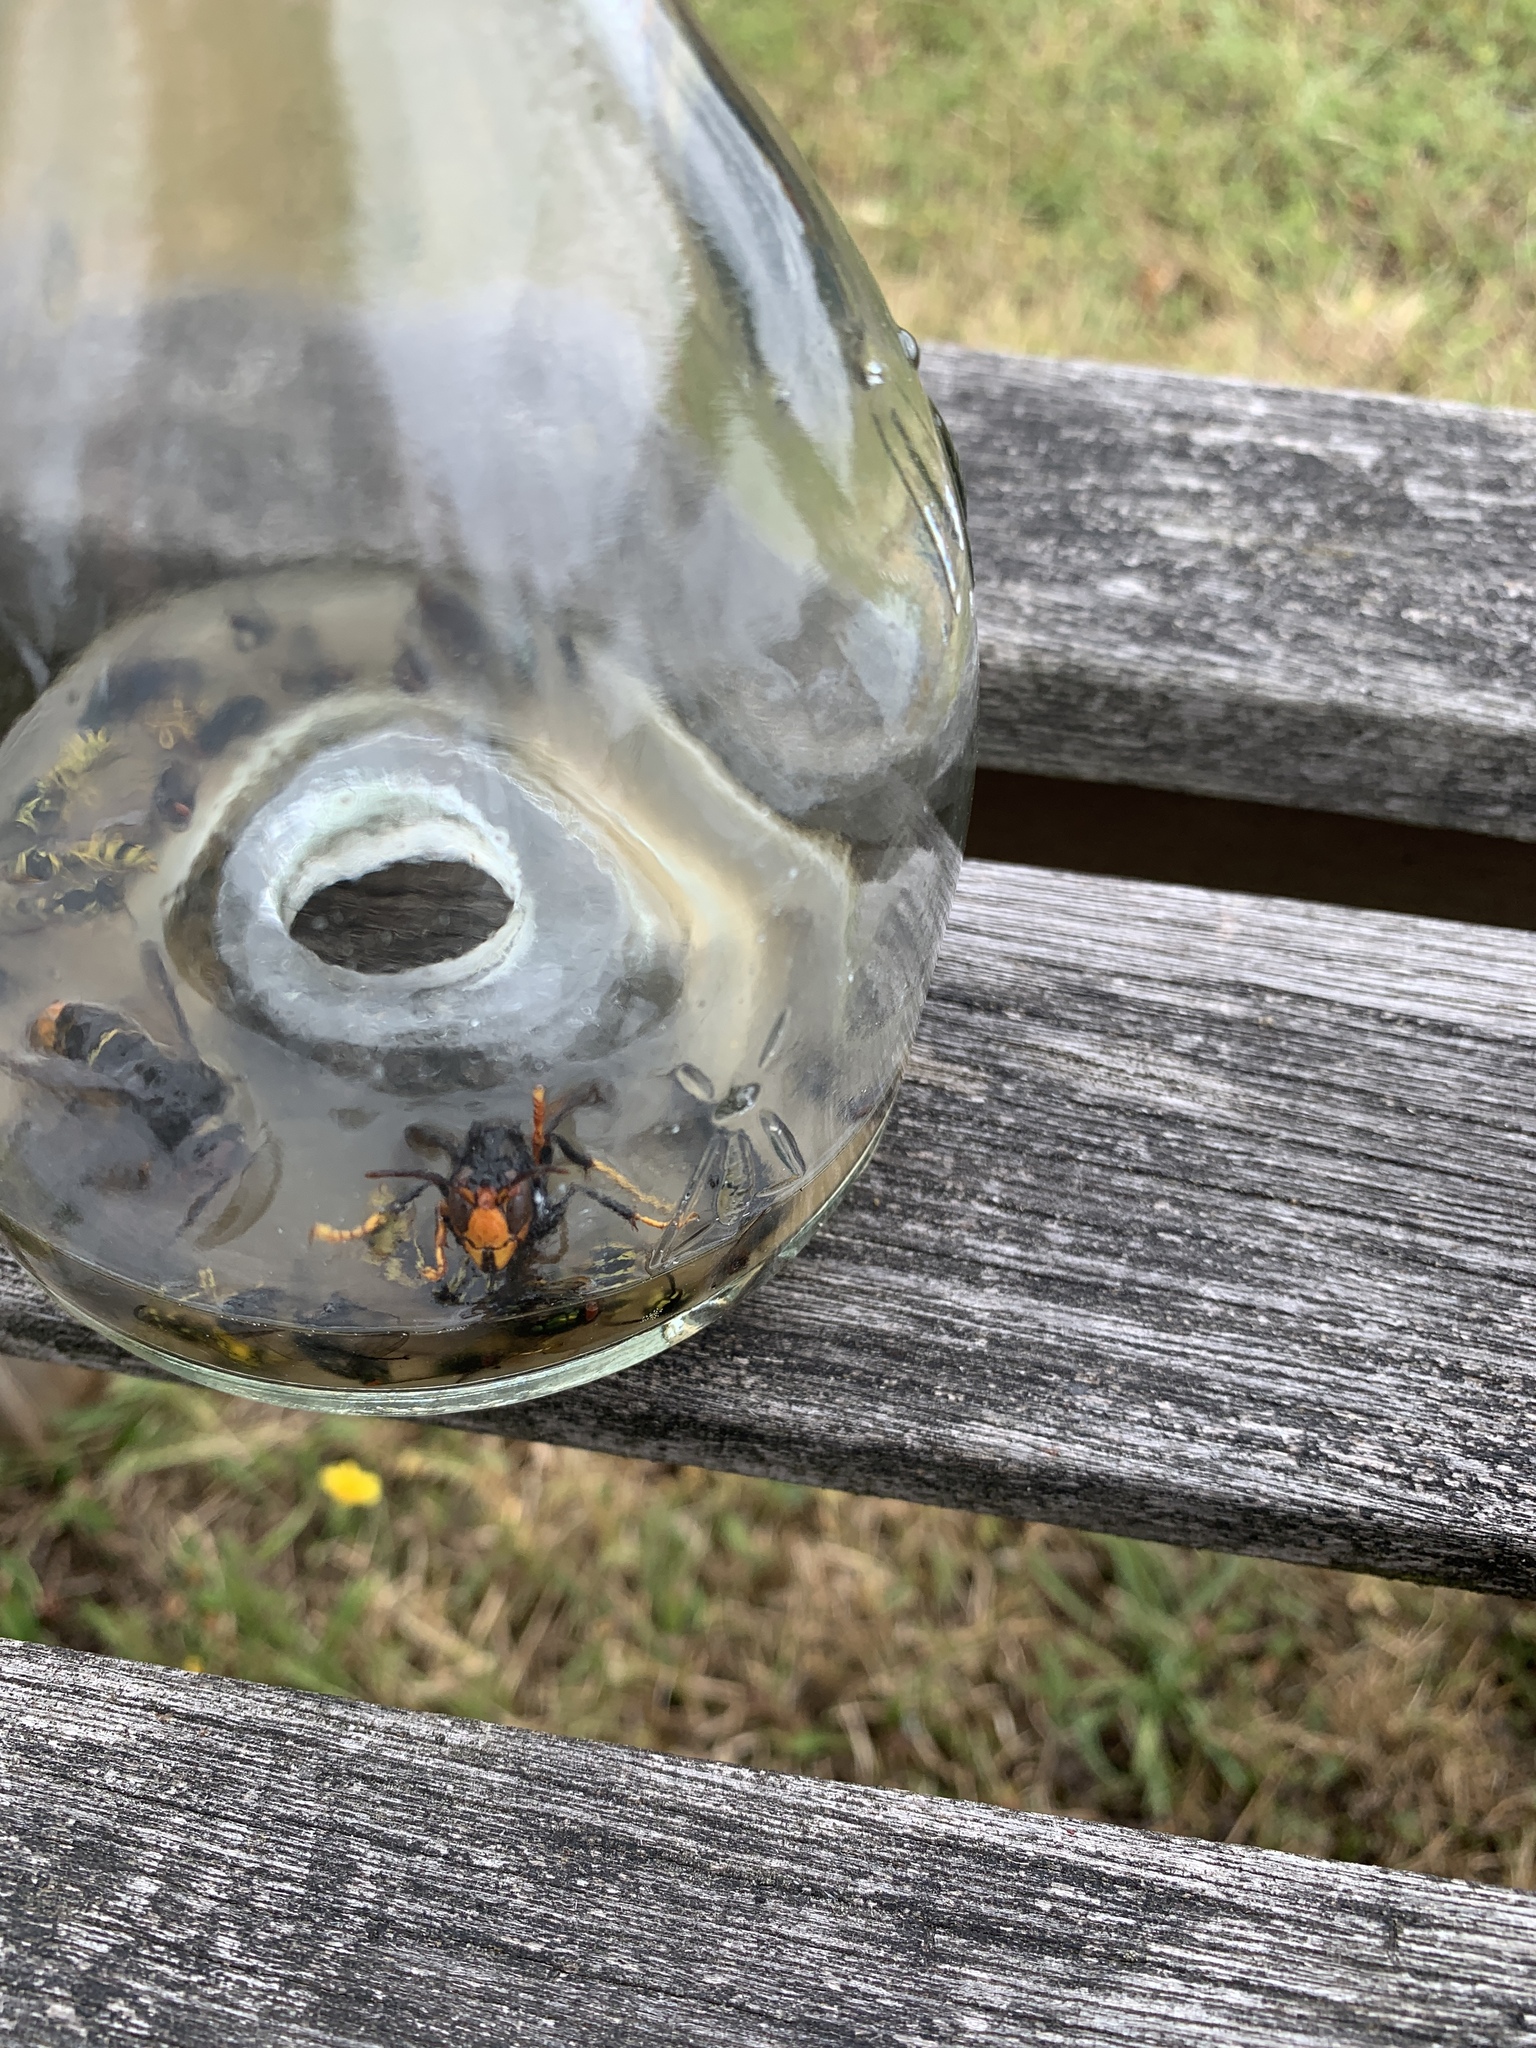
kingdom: Animalia
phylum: Arthropoda
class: Insecta
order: Hymenoptera
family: Vespidae
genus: Vespa
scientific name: Vespa velutina
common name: Asian hornet
